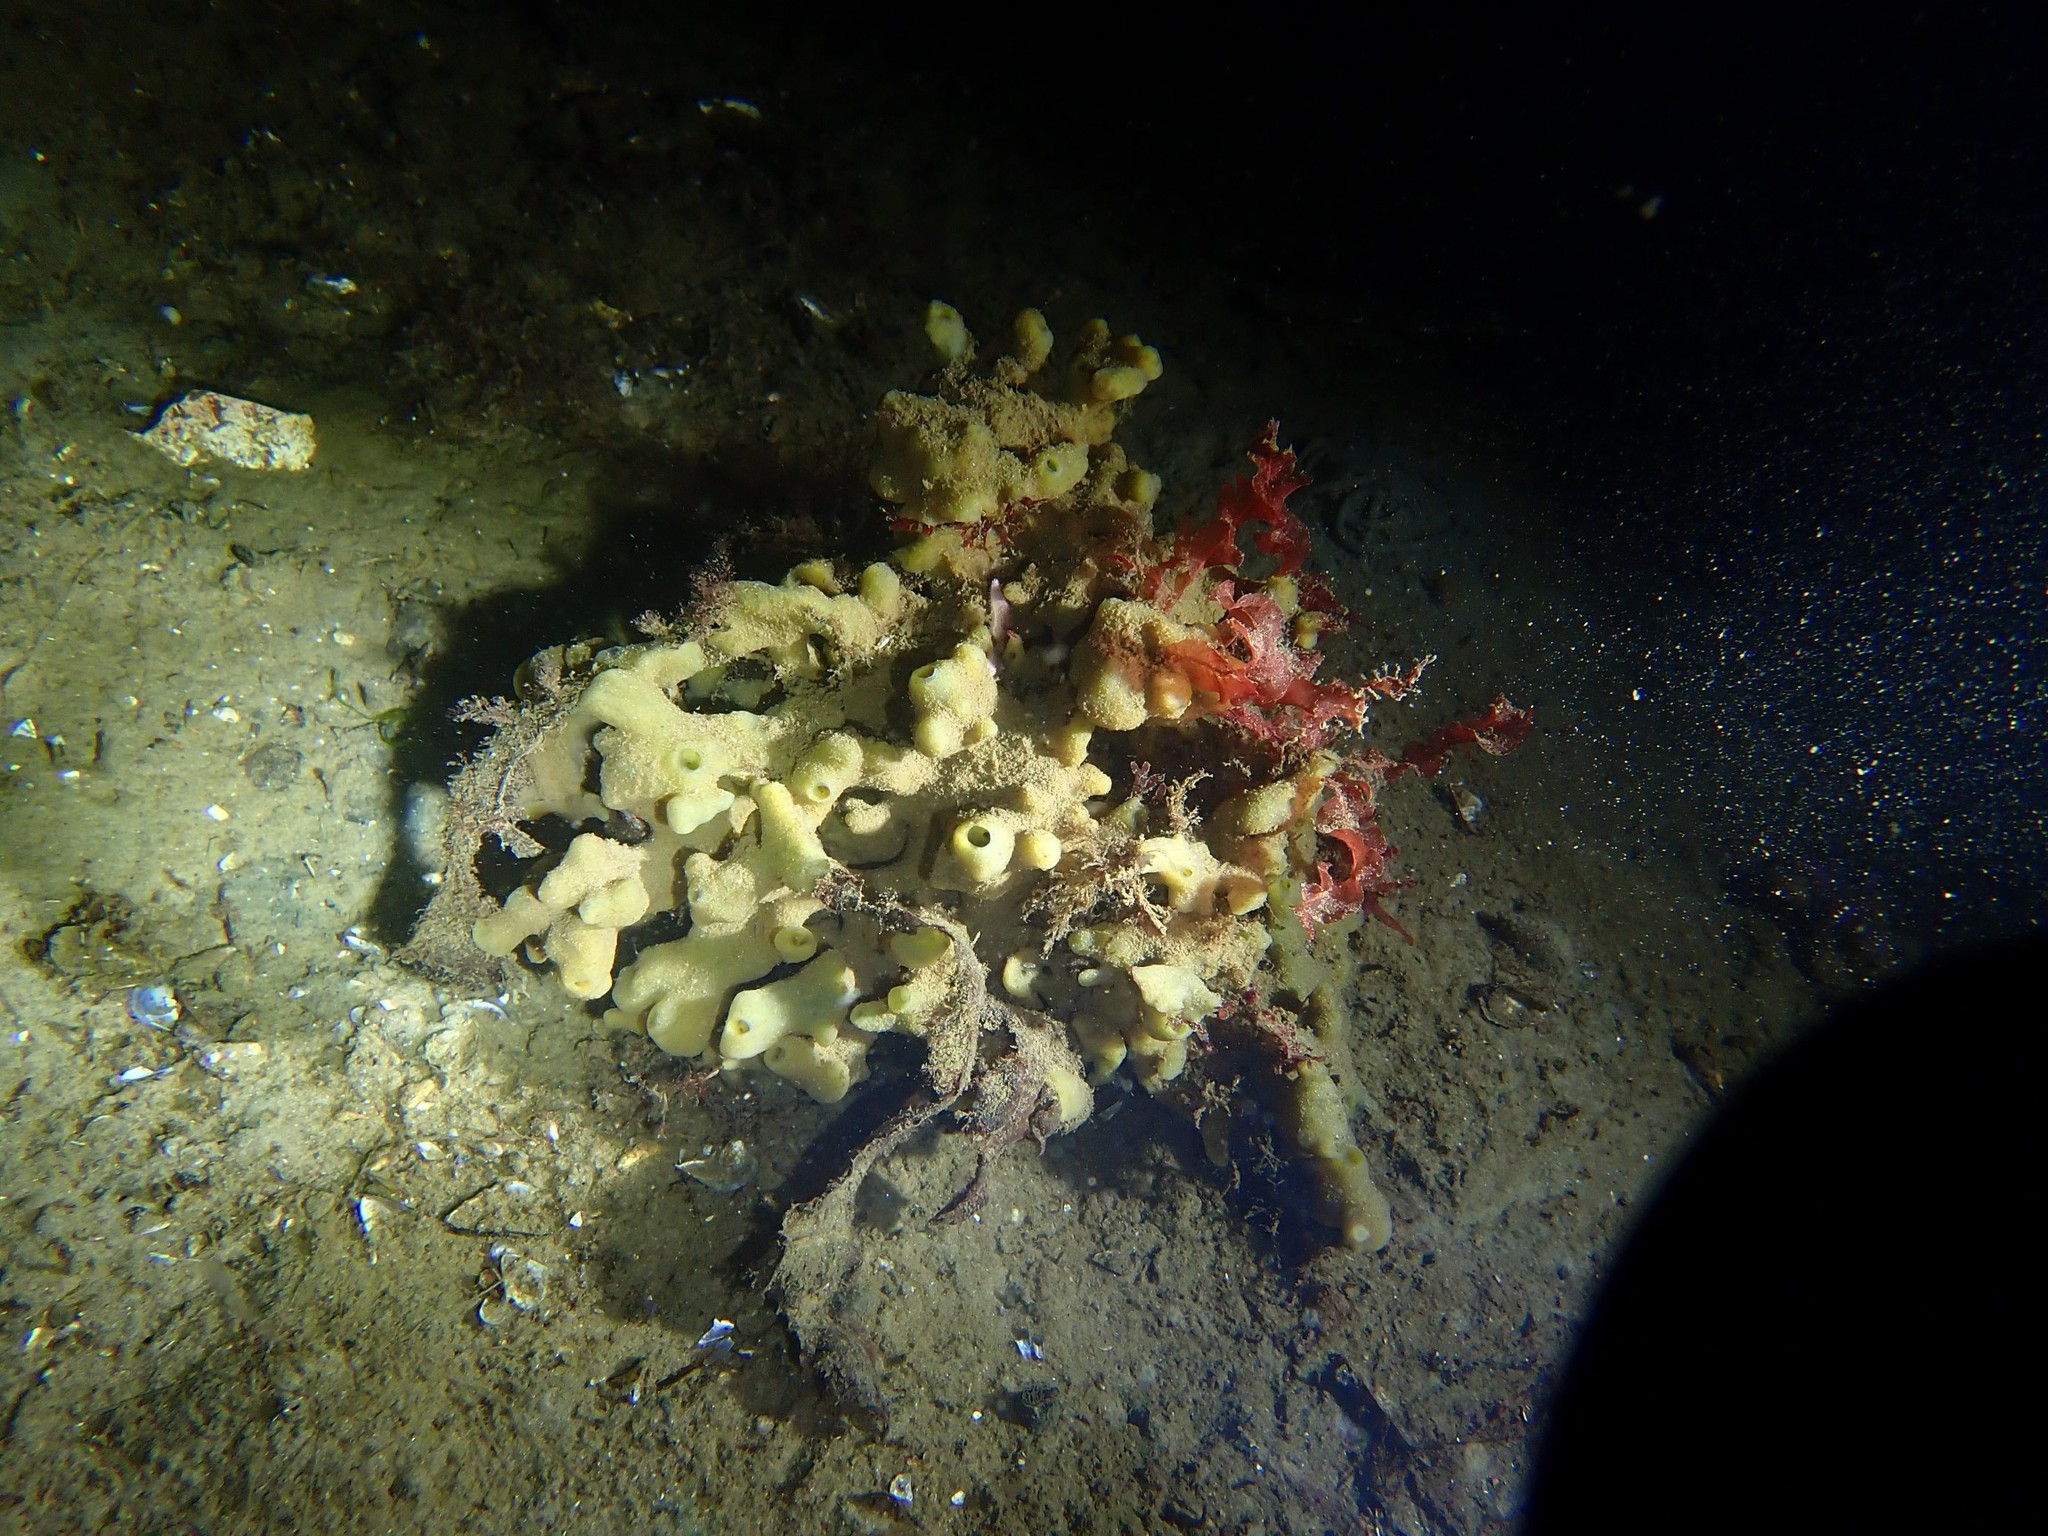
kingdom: Animalia
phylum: Porifera
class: Demospongiae
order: Suberitida
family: Halichondriidae
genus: Halichondria
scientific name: Halichondria panicea
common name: Breadcrumb sponge
